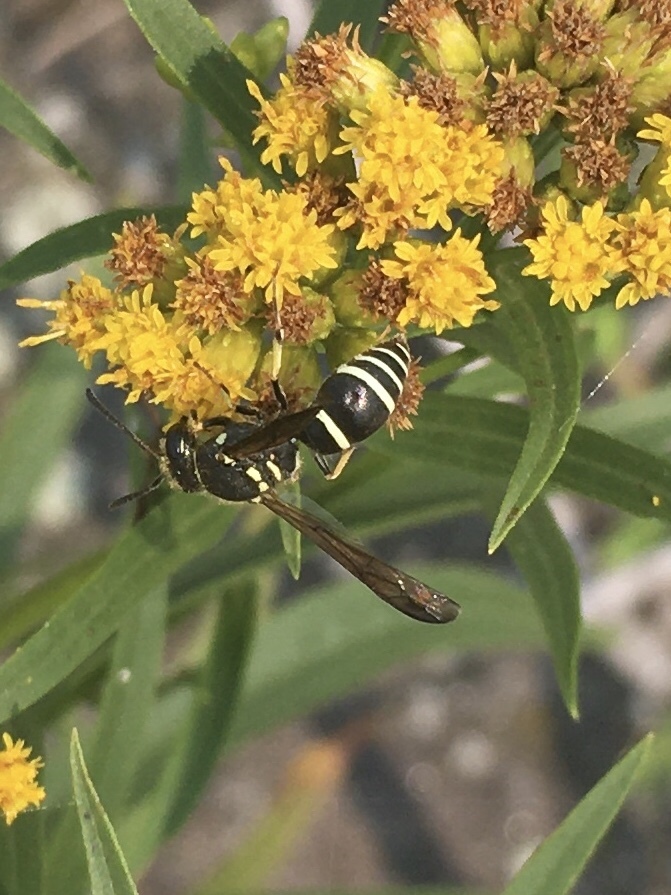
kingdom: Animalia
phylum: Arthropoda
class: Insecta
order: Hymenoptera
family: Vespidae
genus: Ancistrocerus
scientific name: Ancistrocerus catskill
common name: Vespid wasp
